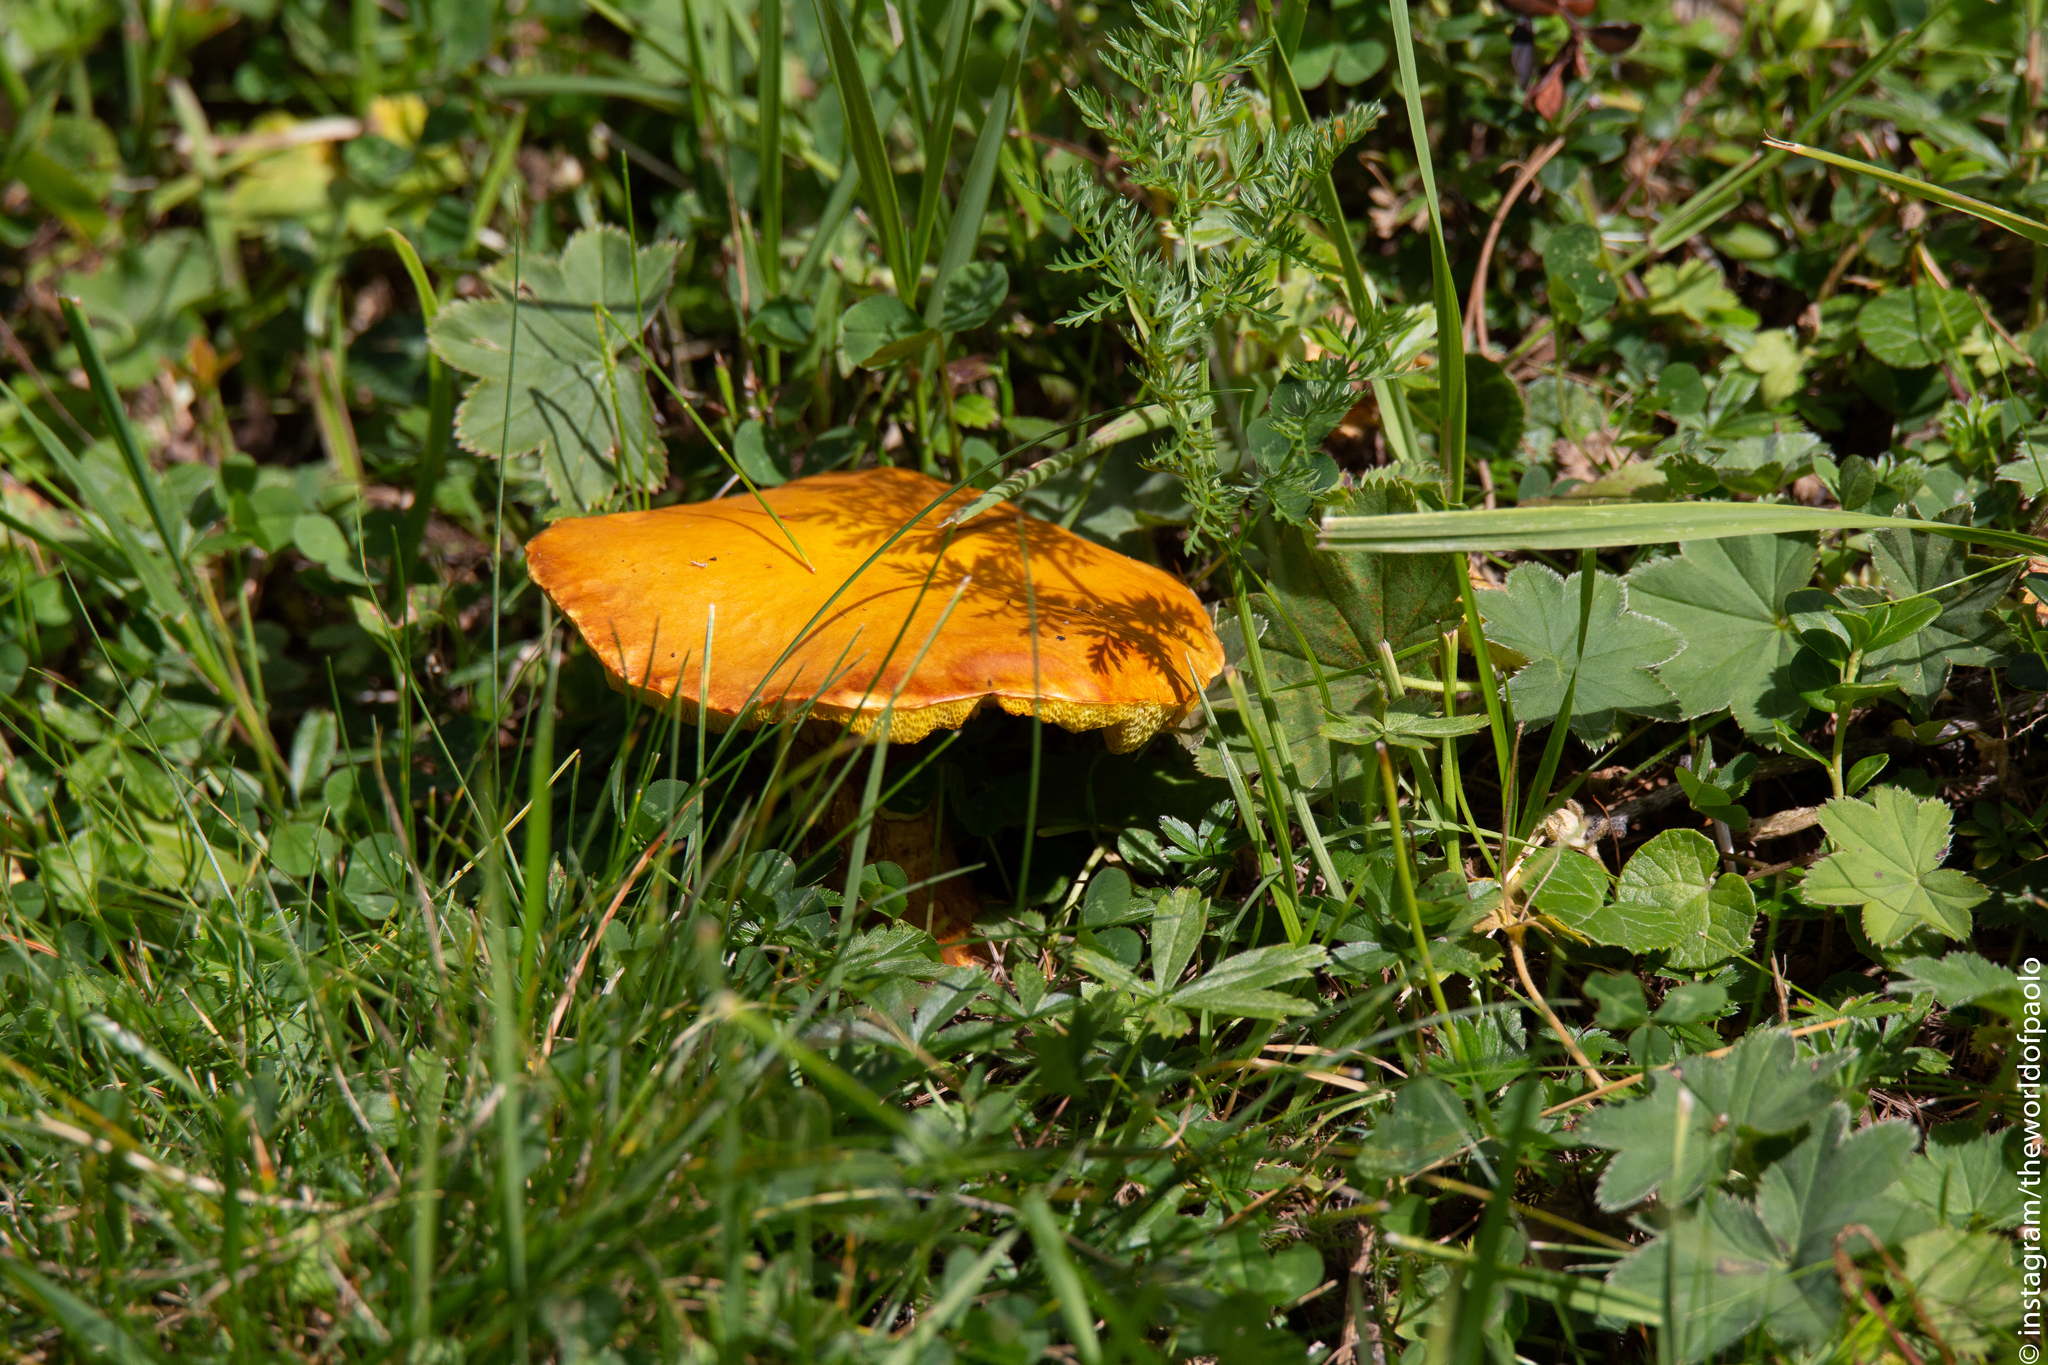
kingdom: Fungi
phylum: Basidiomycota
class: Agaricomycetes
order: Boletales
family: Suillaceae
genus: Suillus
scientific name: Suillus grevillei
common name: Larch bolete
